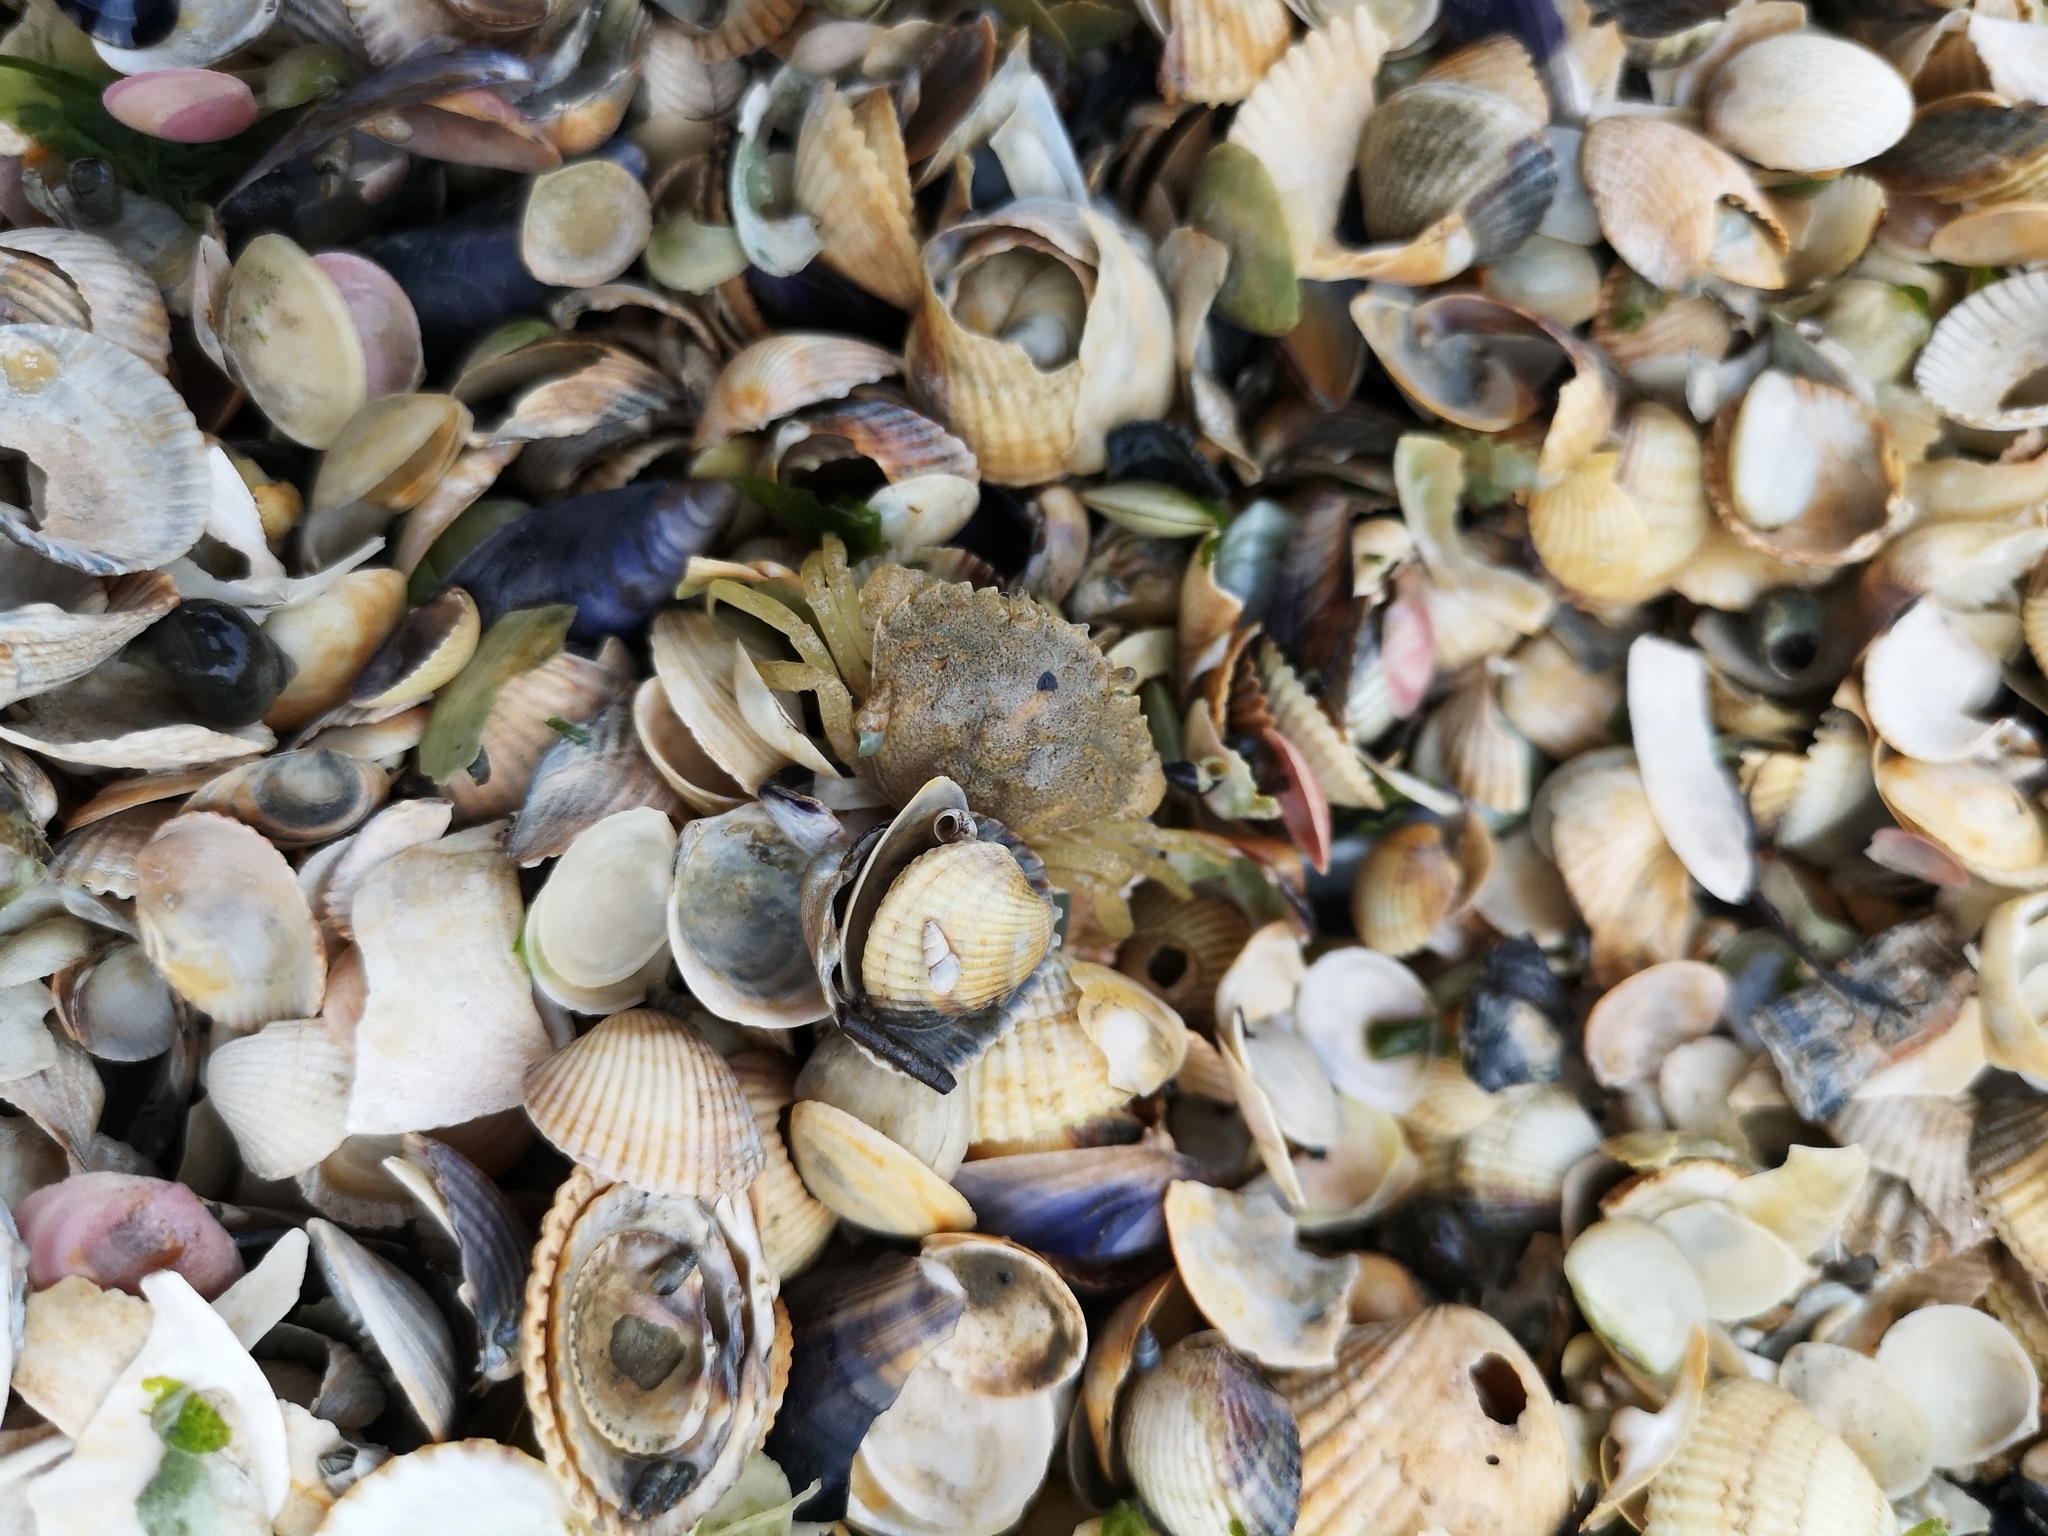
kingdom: Animalia
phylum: Arthropoda
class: Malacostraca
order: Decapoda
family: Carcinidae
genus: Carcinus
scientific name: Carcinus maenas
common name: European green crab
